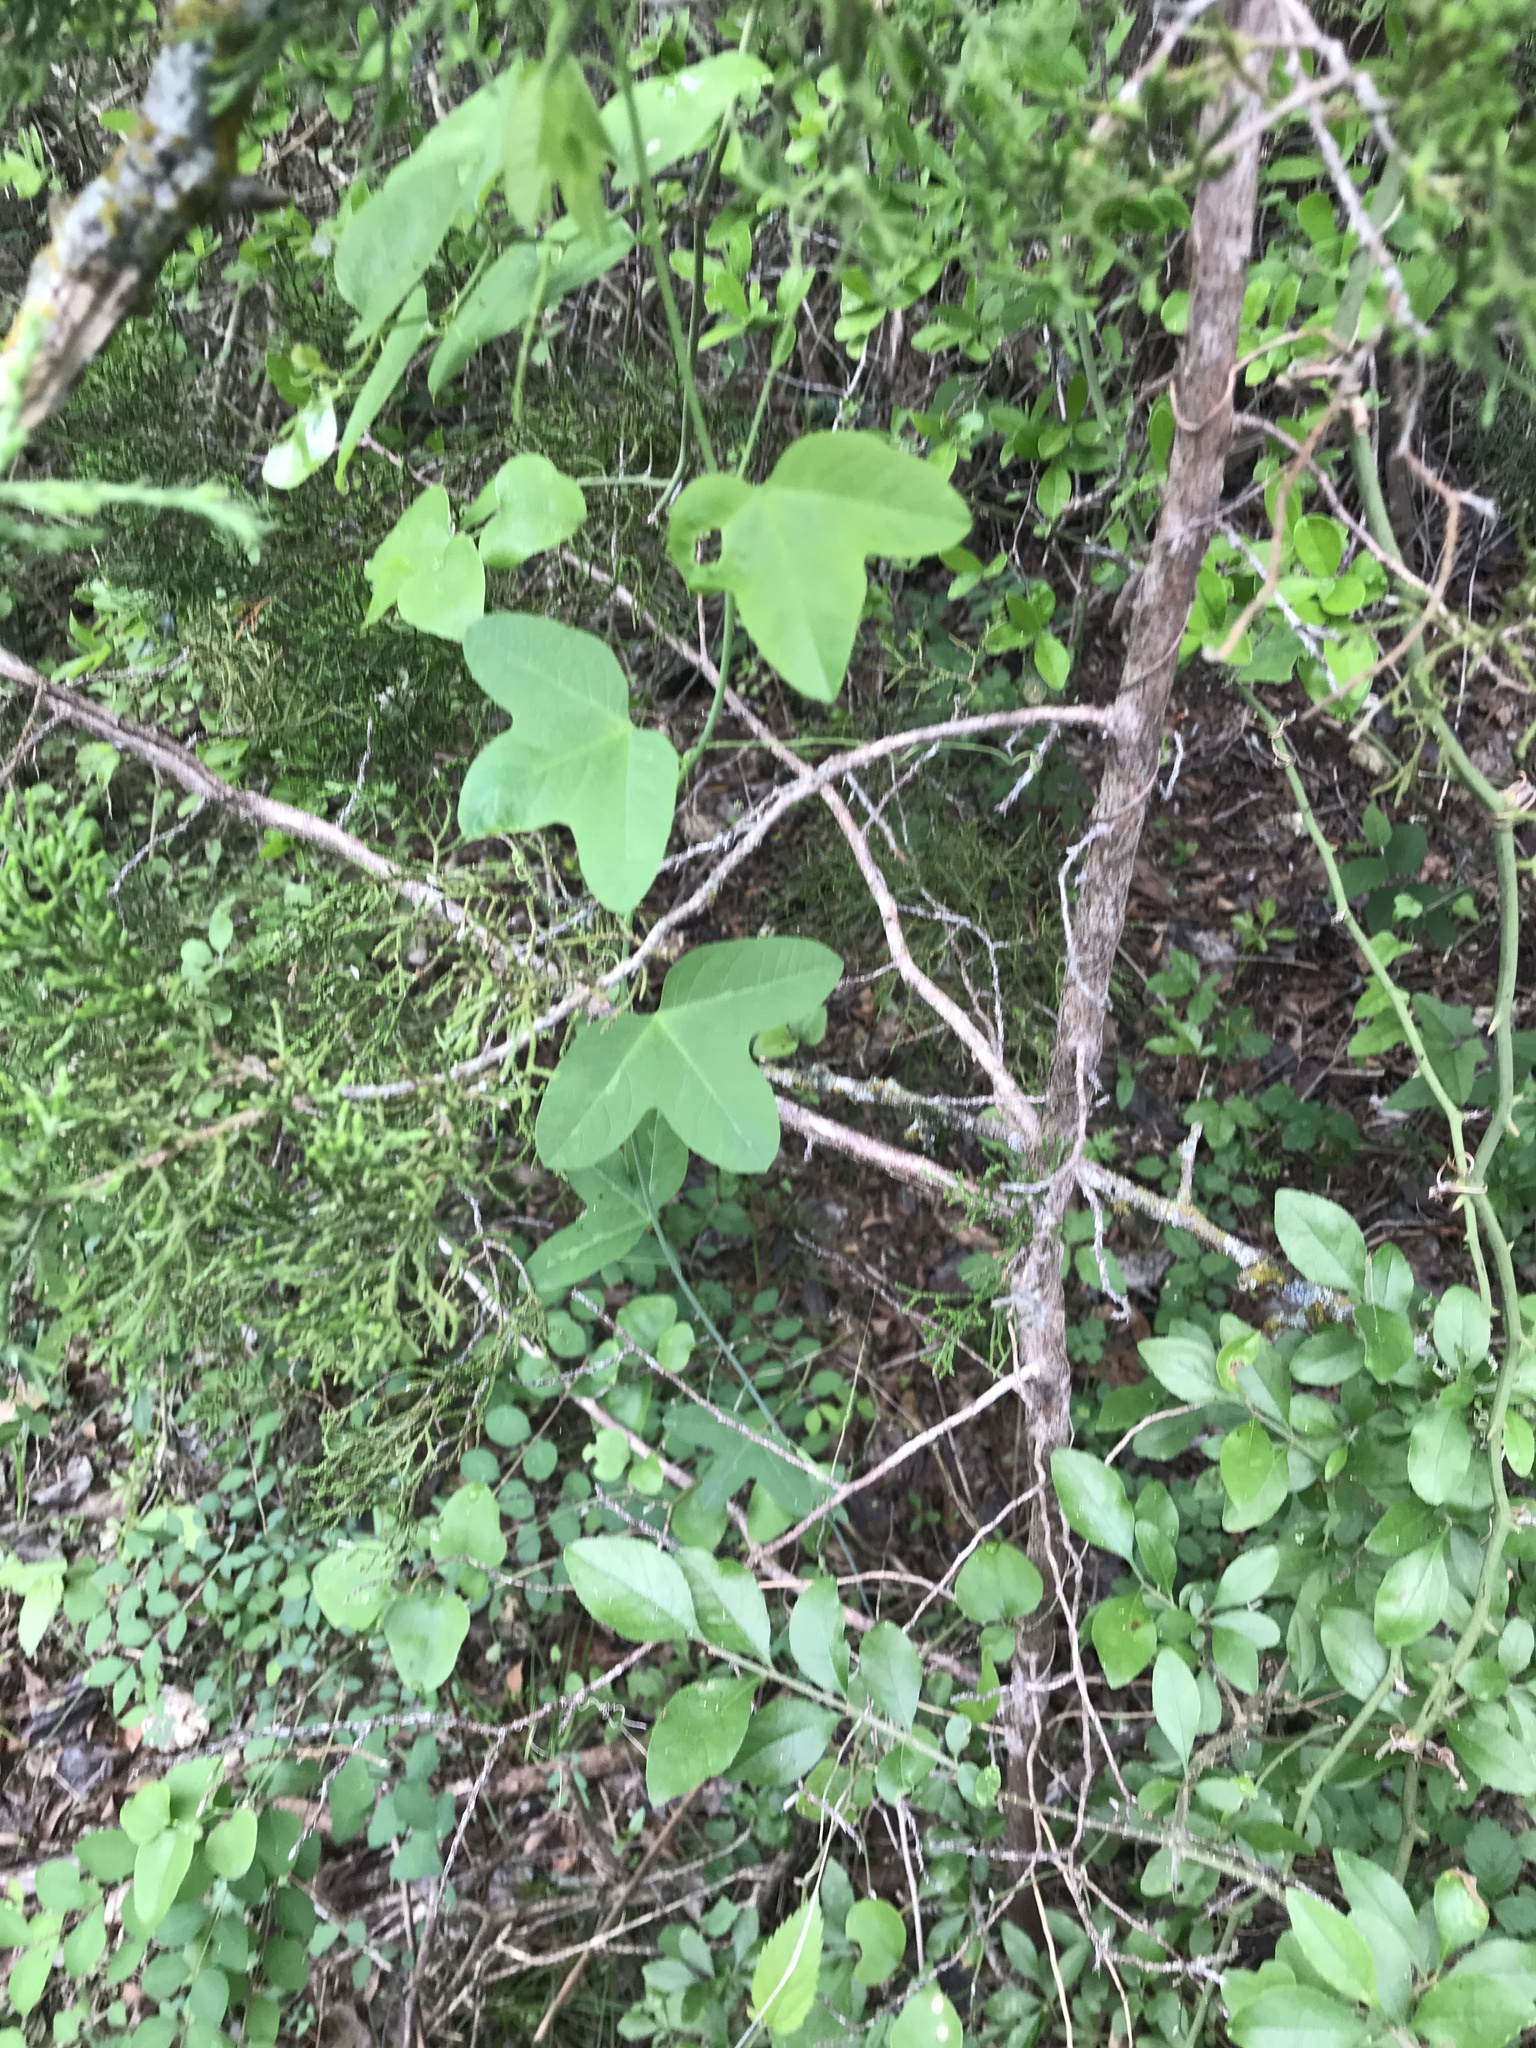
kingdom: Plantae
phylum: Tracheophyta
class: Magnoliopsida
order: Malpighiales
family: Passifloraceae
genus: Passiflora
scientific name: Passiflora lutea
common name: Yellow passionflower
